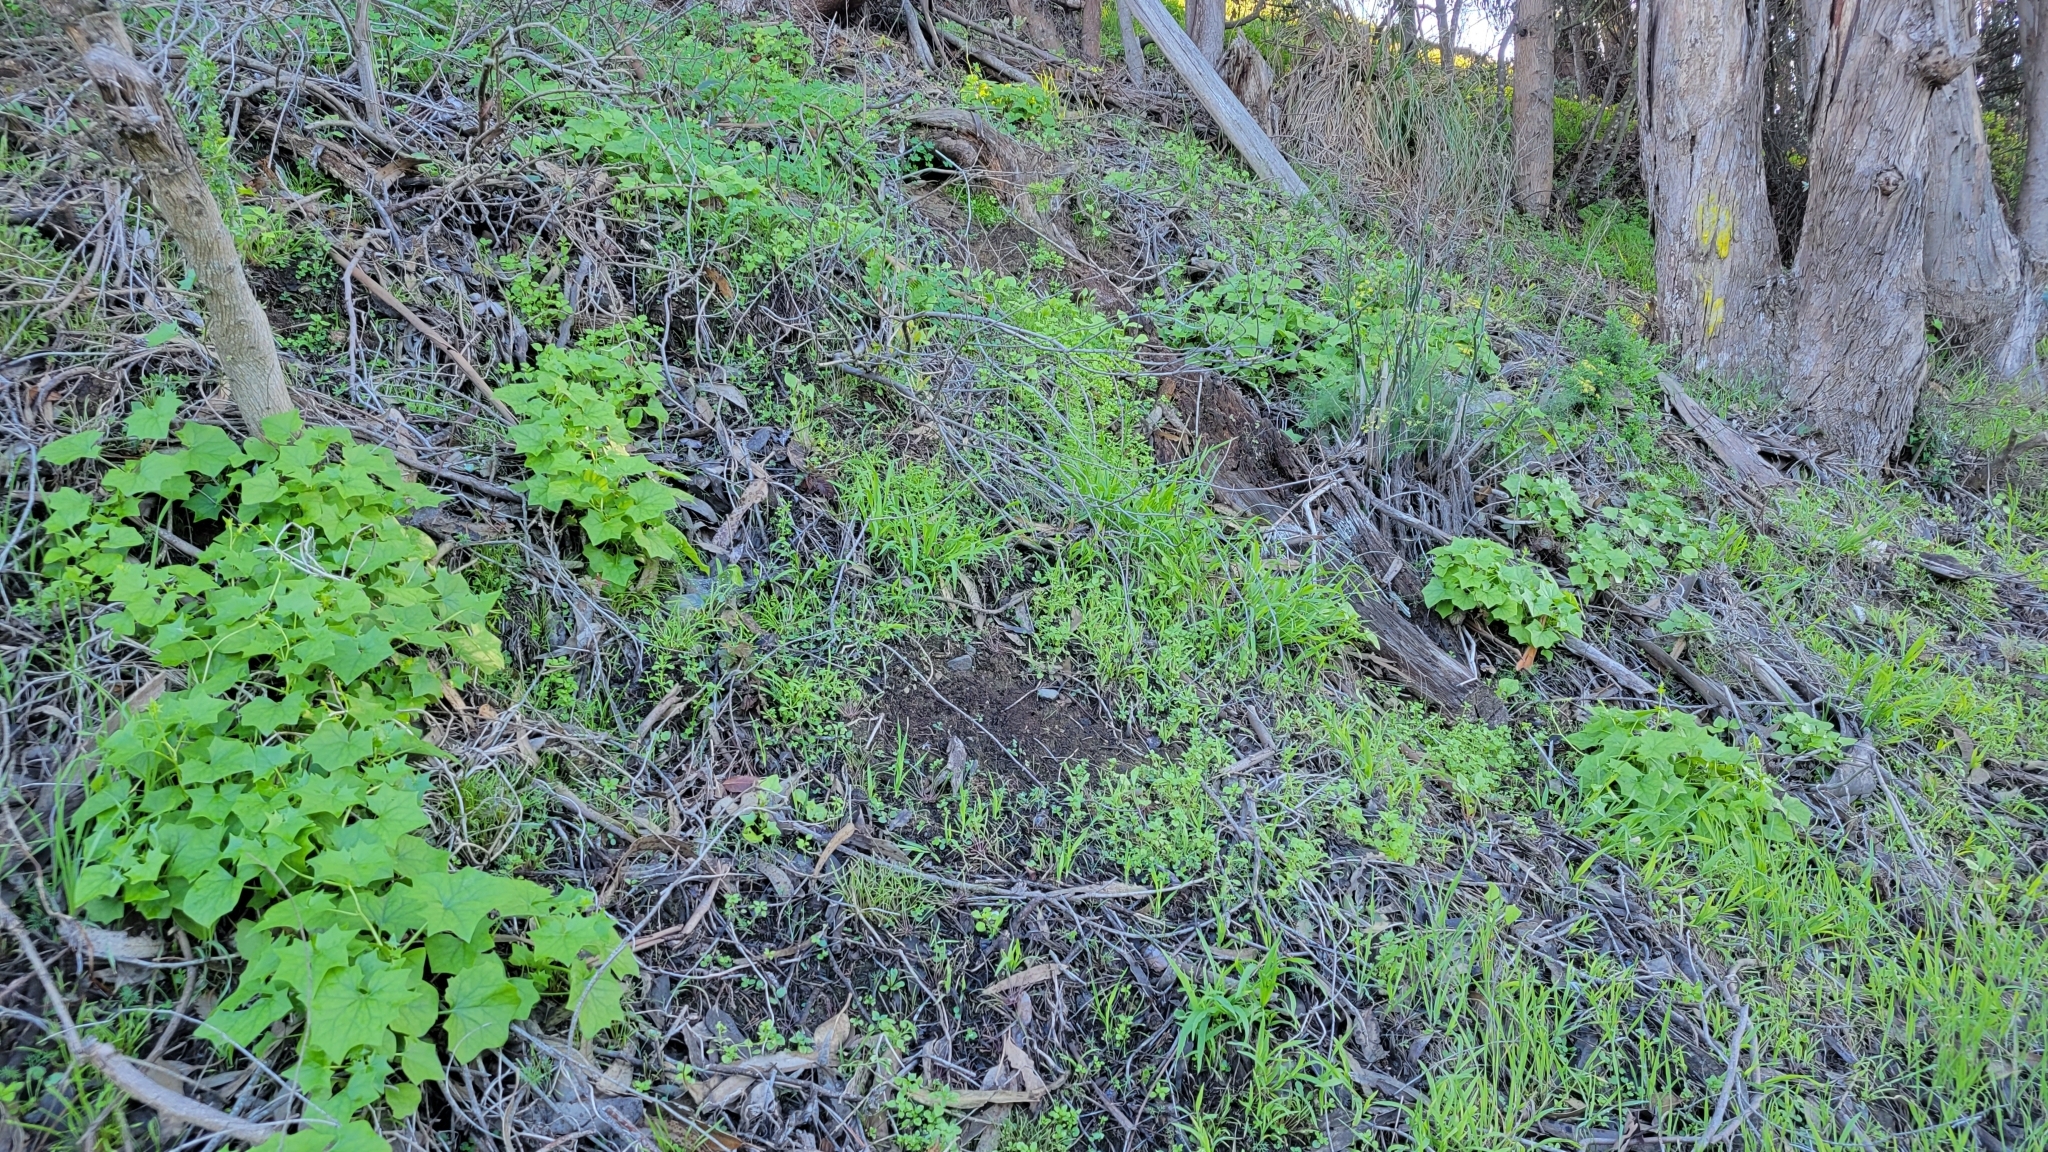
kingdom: Plantae
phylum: Tracheophyta
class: Magnoliopsida
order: Asterales
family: Asteraceae
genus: Delairea
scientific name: Delairea odorata
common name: Cape-ivy
